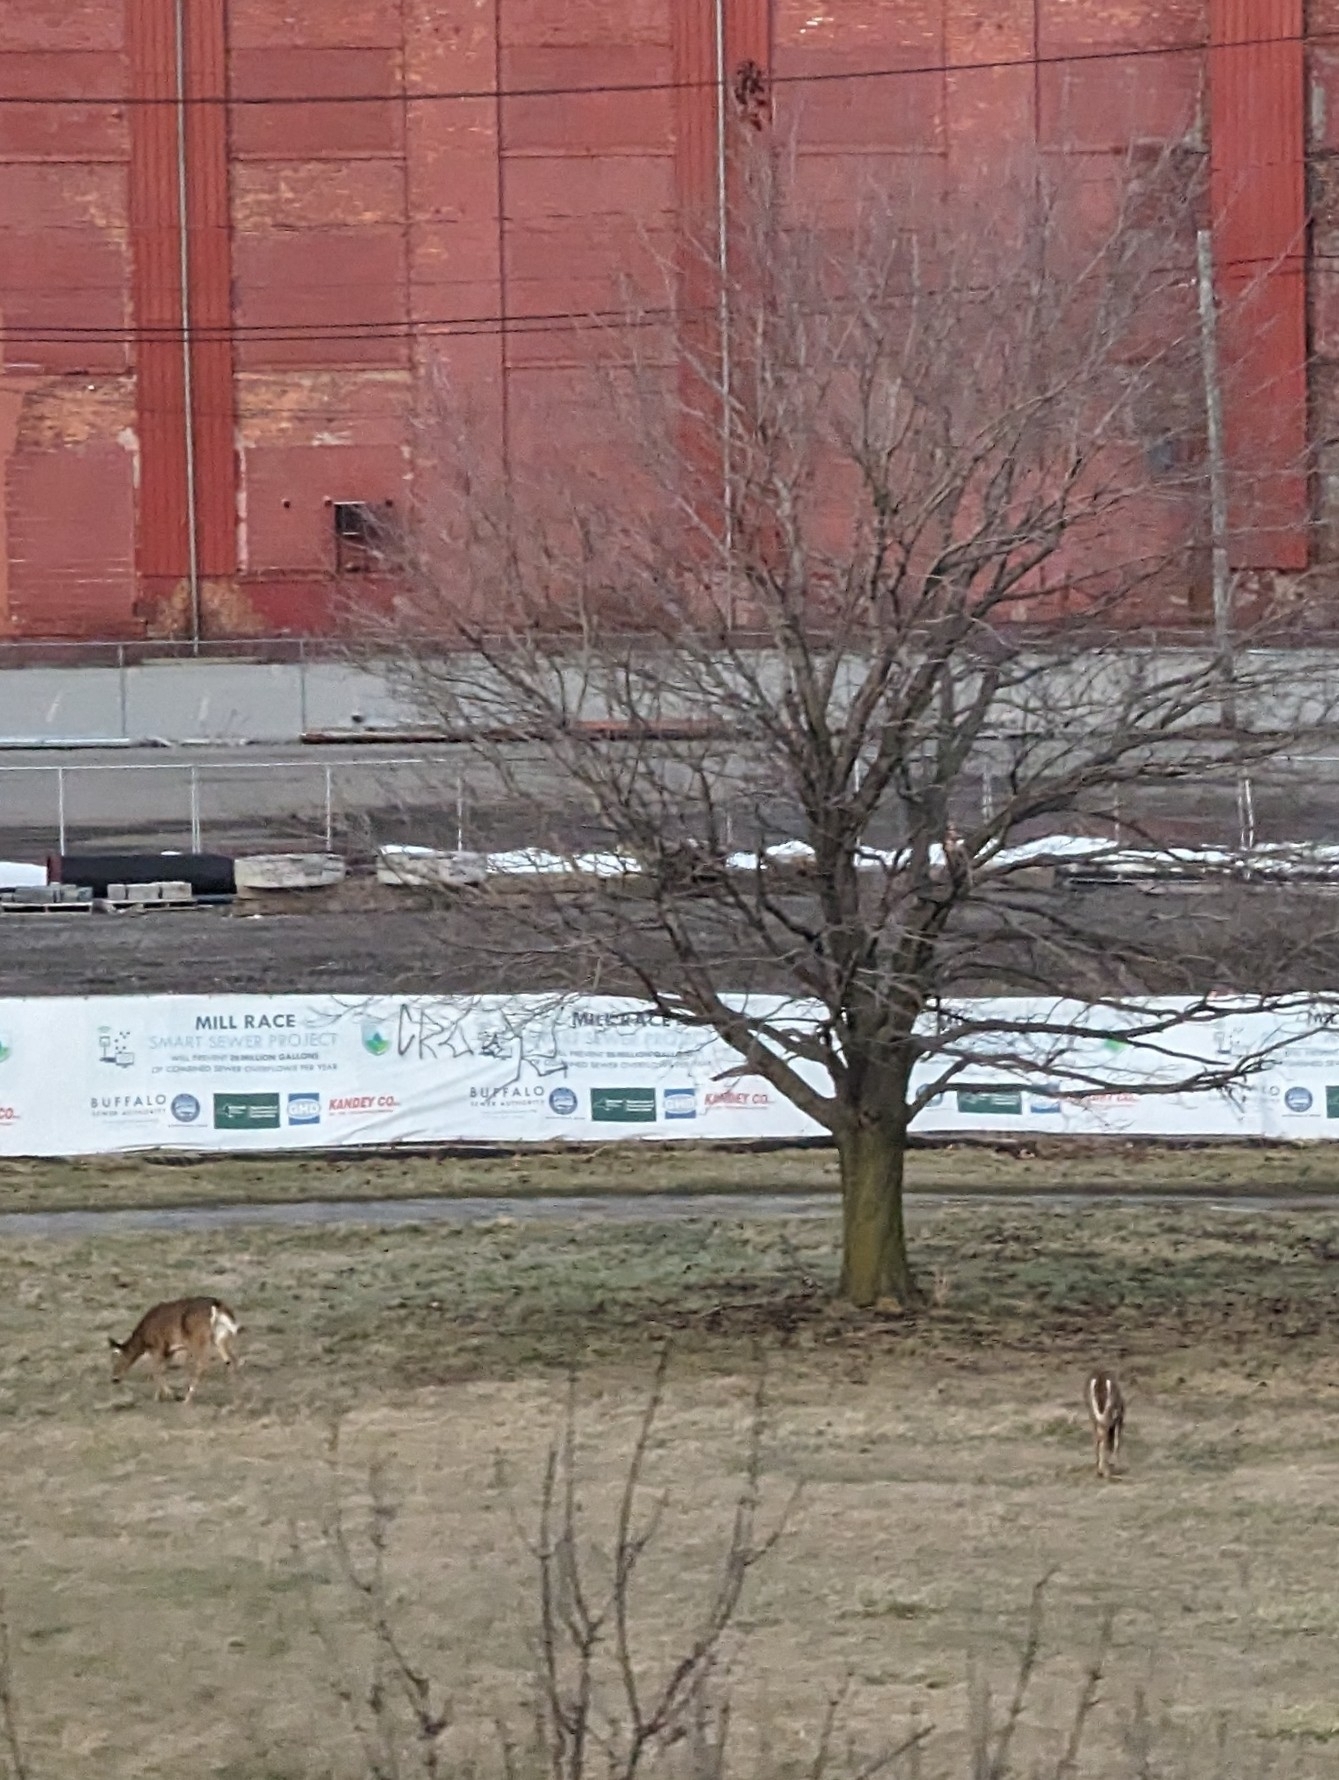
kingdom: Animalia
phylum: Chordata
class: Mammalia
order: Artiodactyla
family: Cervidae
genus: Odocoileus
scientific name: Odocoileus virginianus
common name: White-tailed deer
